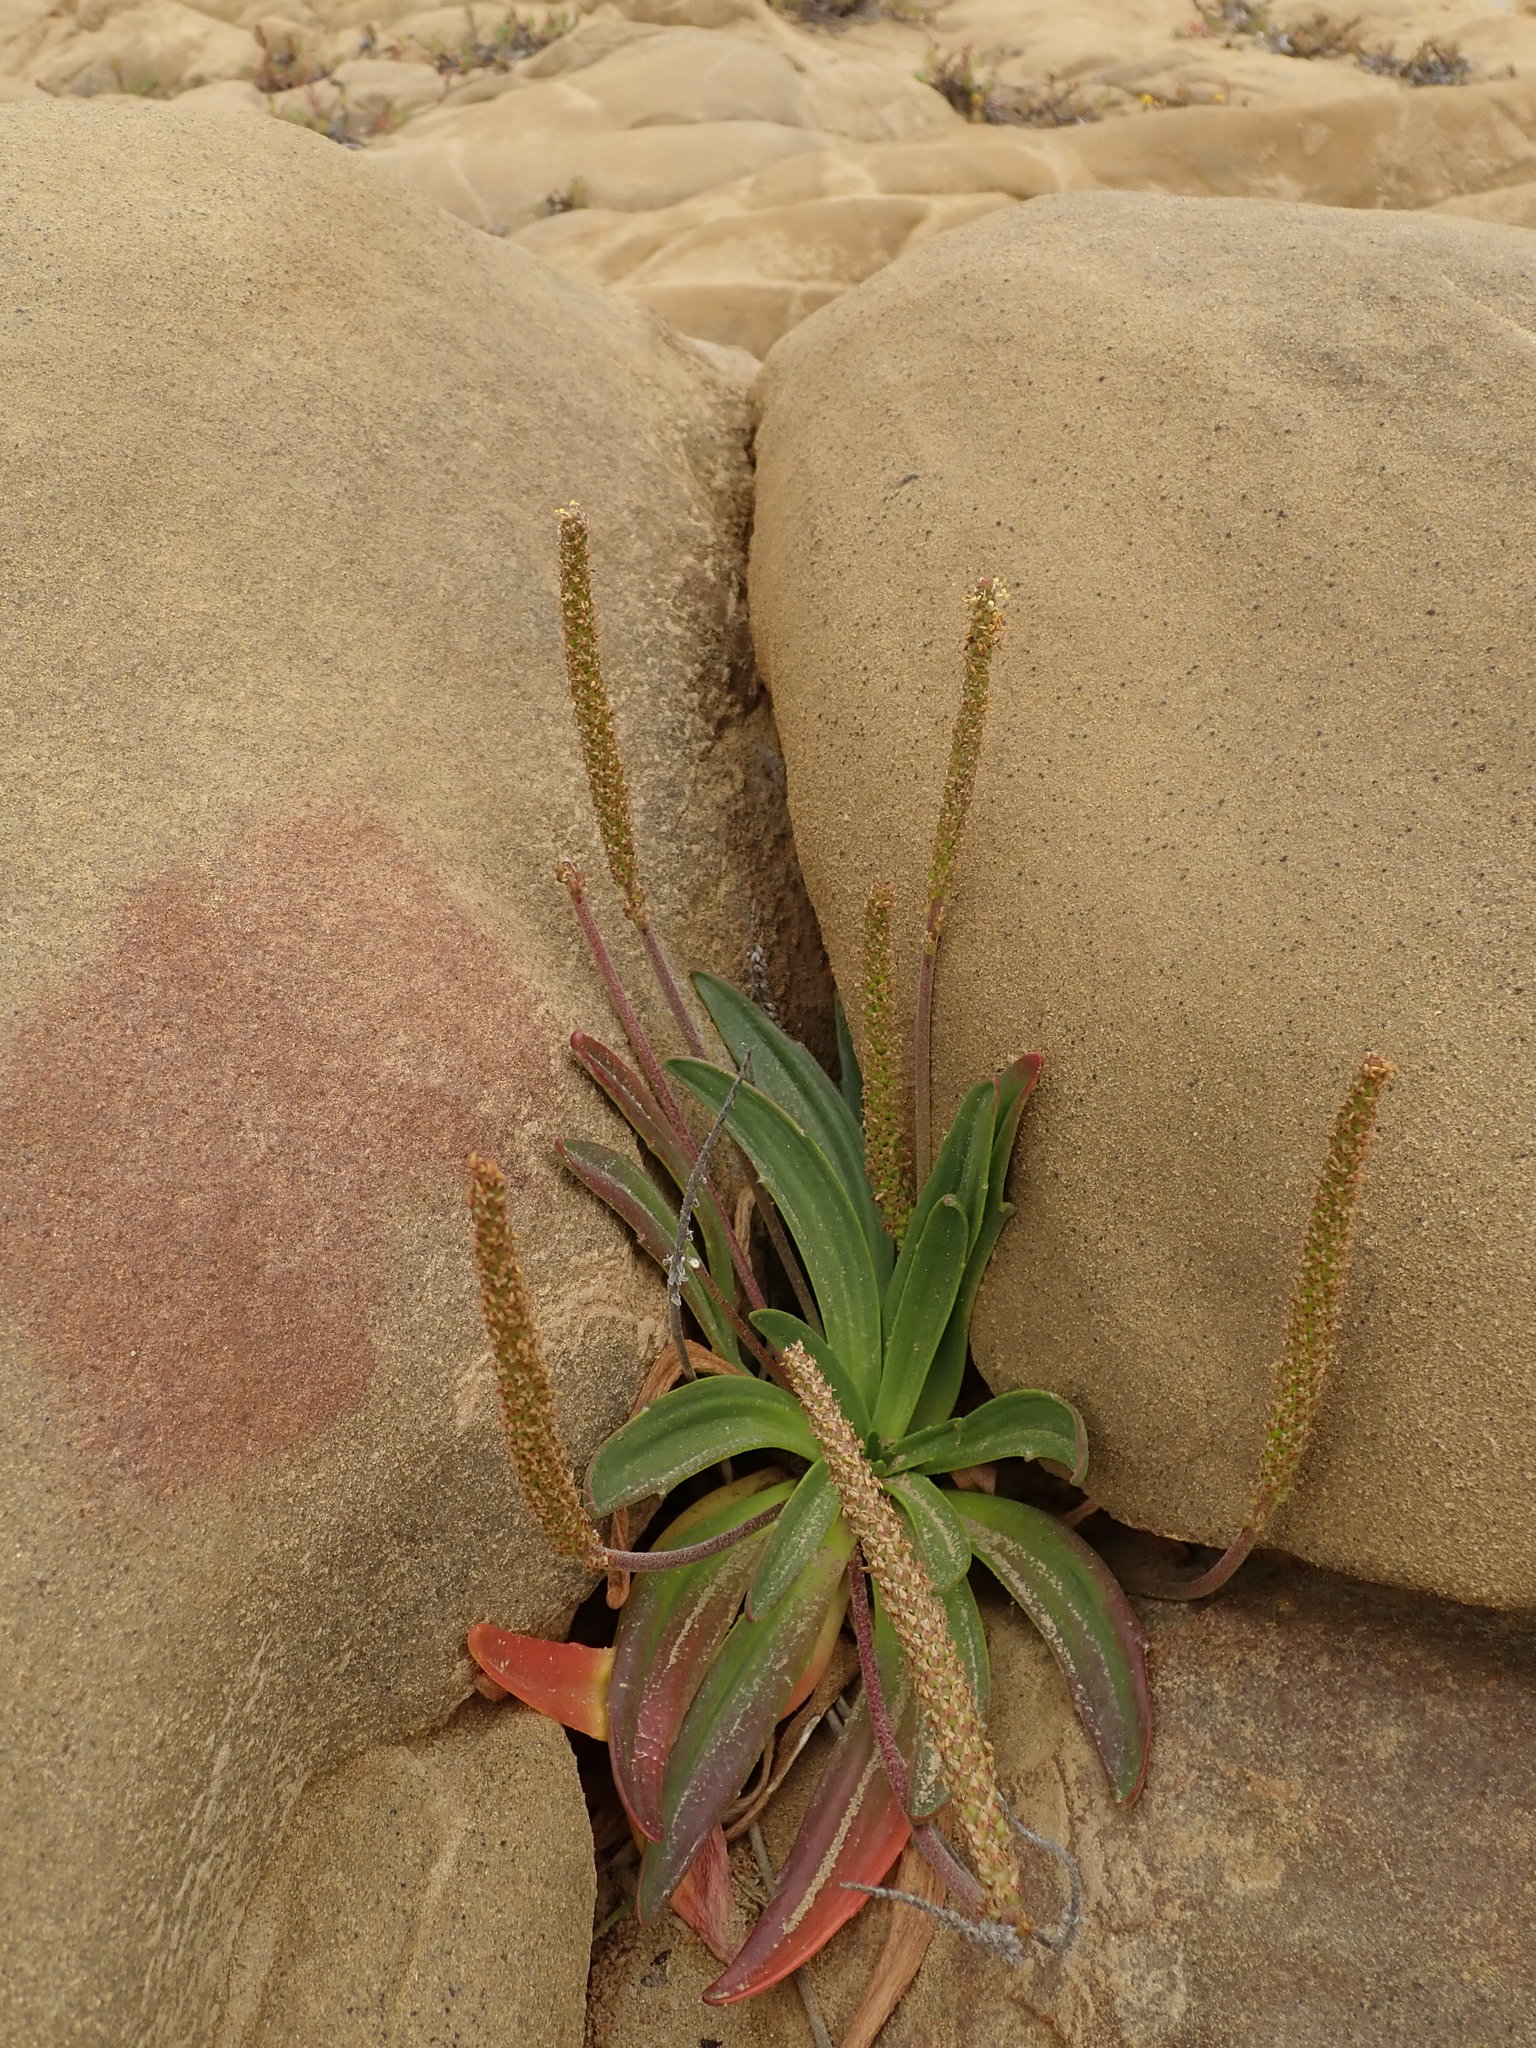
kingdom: Plantae
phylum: Tracheophyta
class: Magnoliopsida
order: Lamiales
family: Plantaginaceae
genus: Plantago
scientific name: Plantago maritima
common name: Sea plantain
